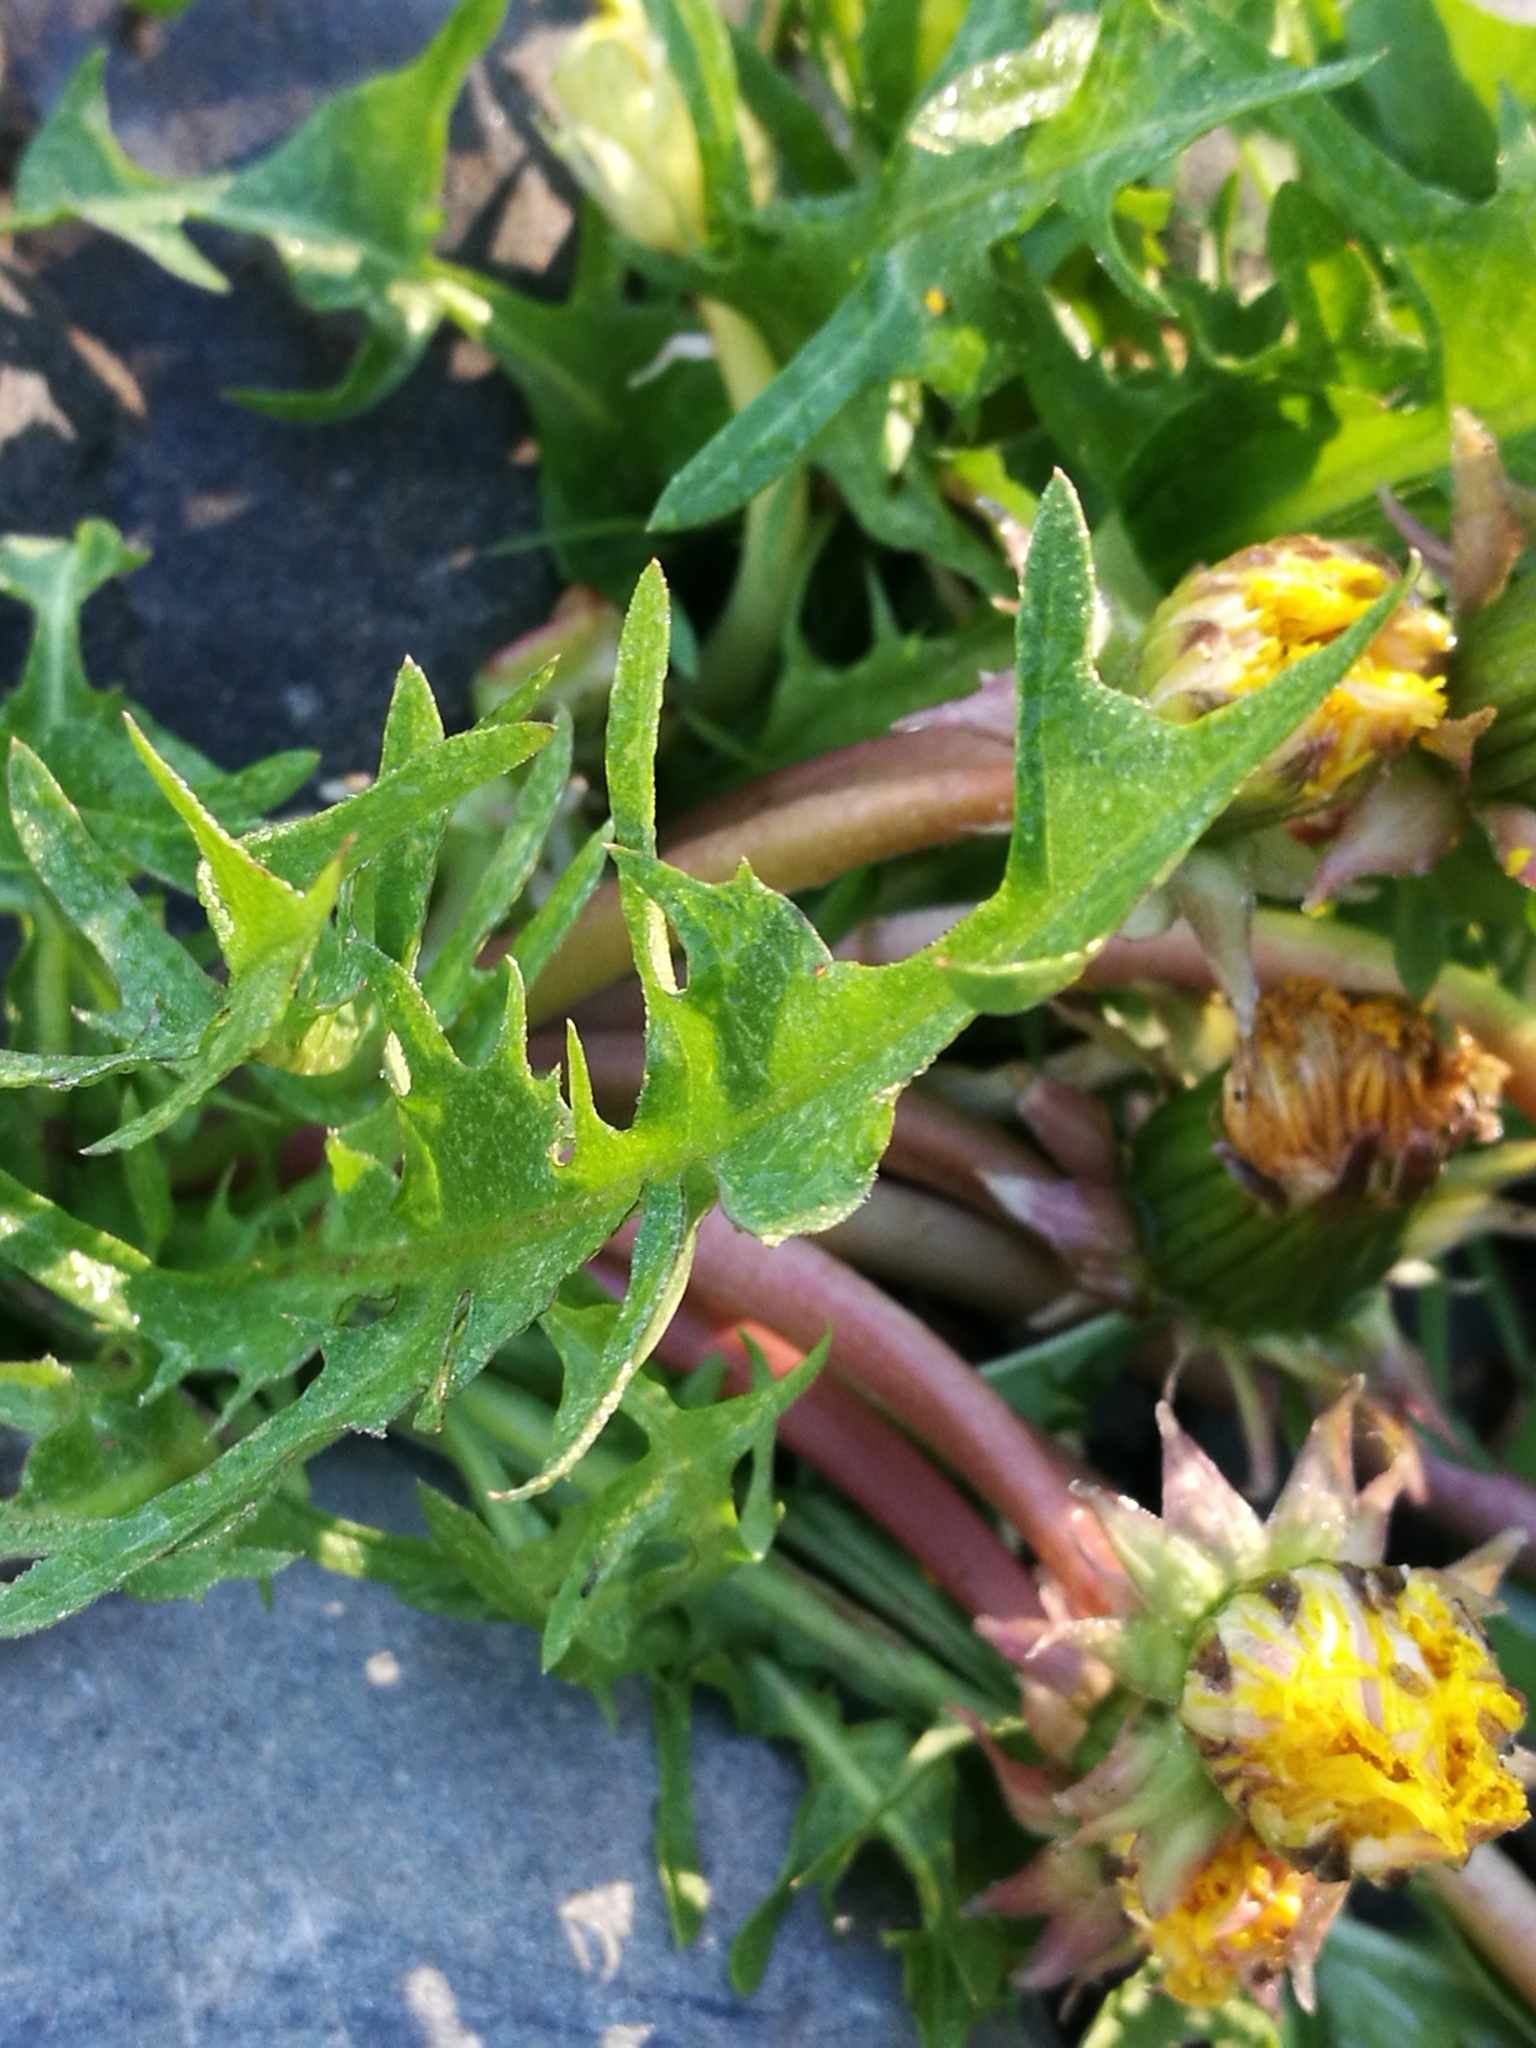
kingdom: Plantae
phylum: Tracheophyta
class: Magnoliopsida
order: Asterales
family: Asteraceae
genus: Taraxacum
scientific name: Taraxacum officinale
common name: Common dandelion
